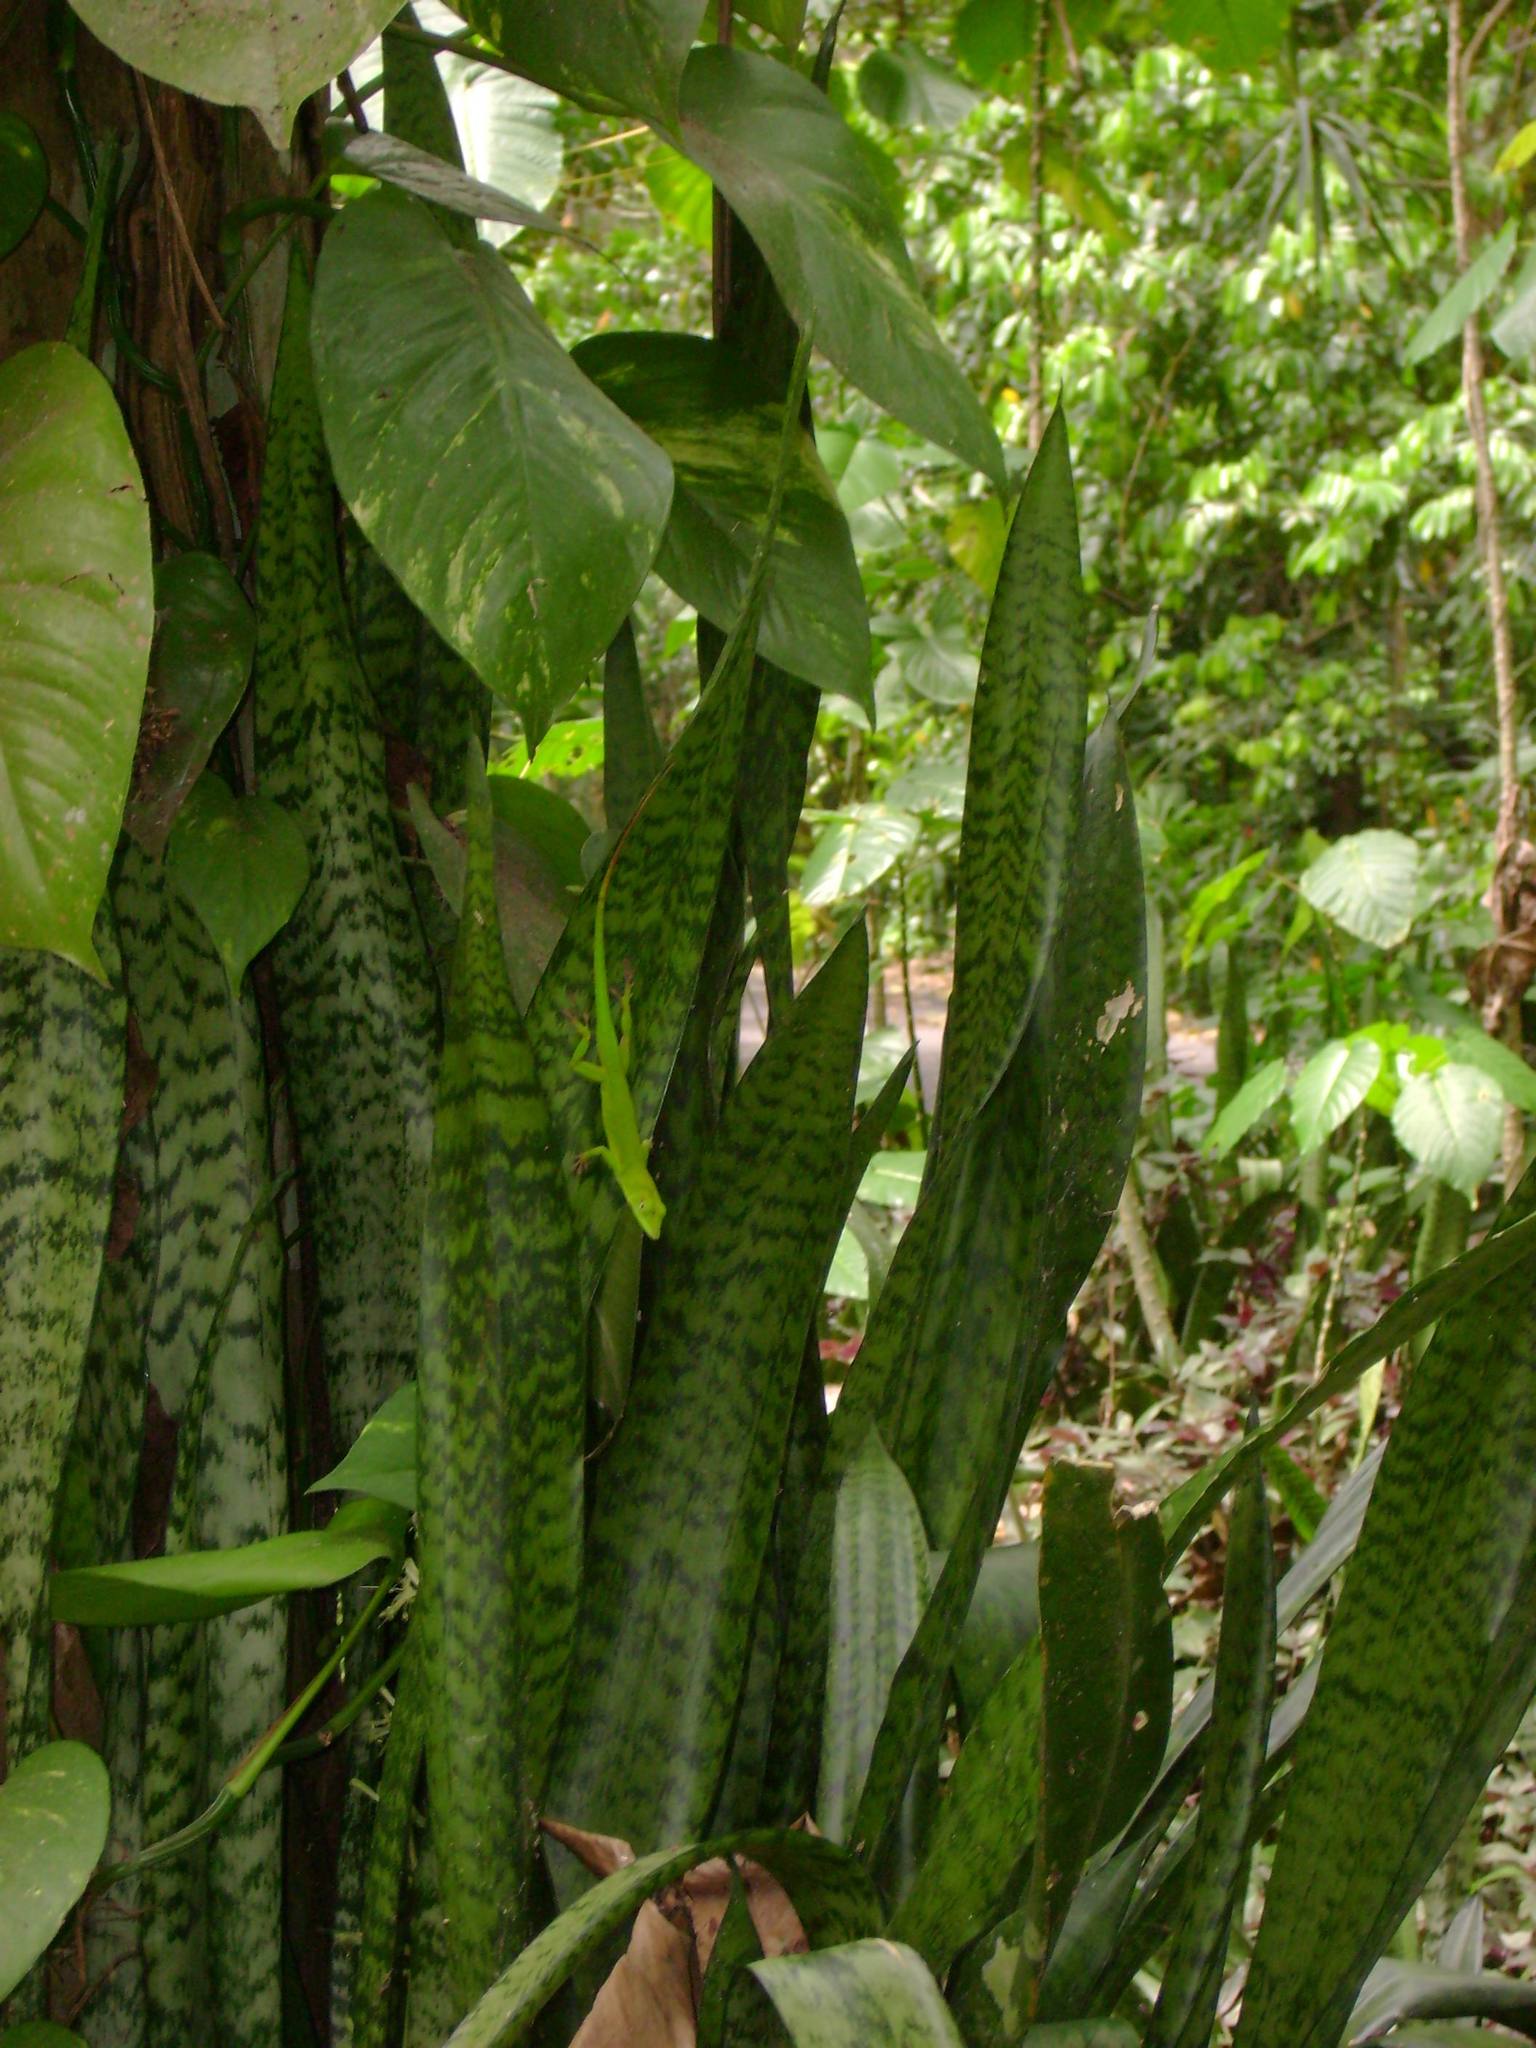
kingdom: Animalia
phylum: Chordata
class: Squamata
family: Dactyloidae
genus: Anolis
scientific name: Anolis callainus
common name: Dominican green anole
